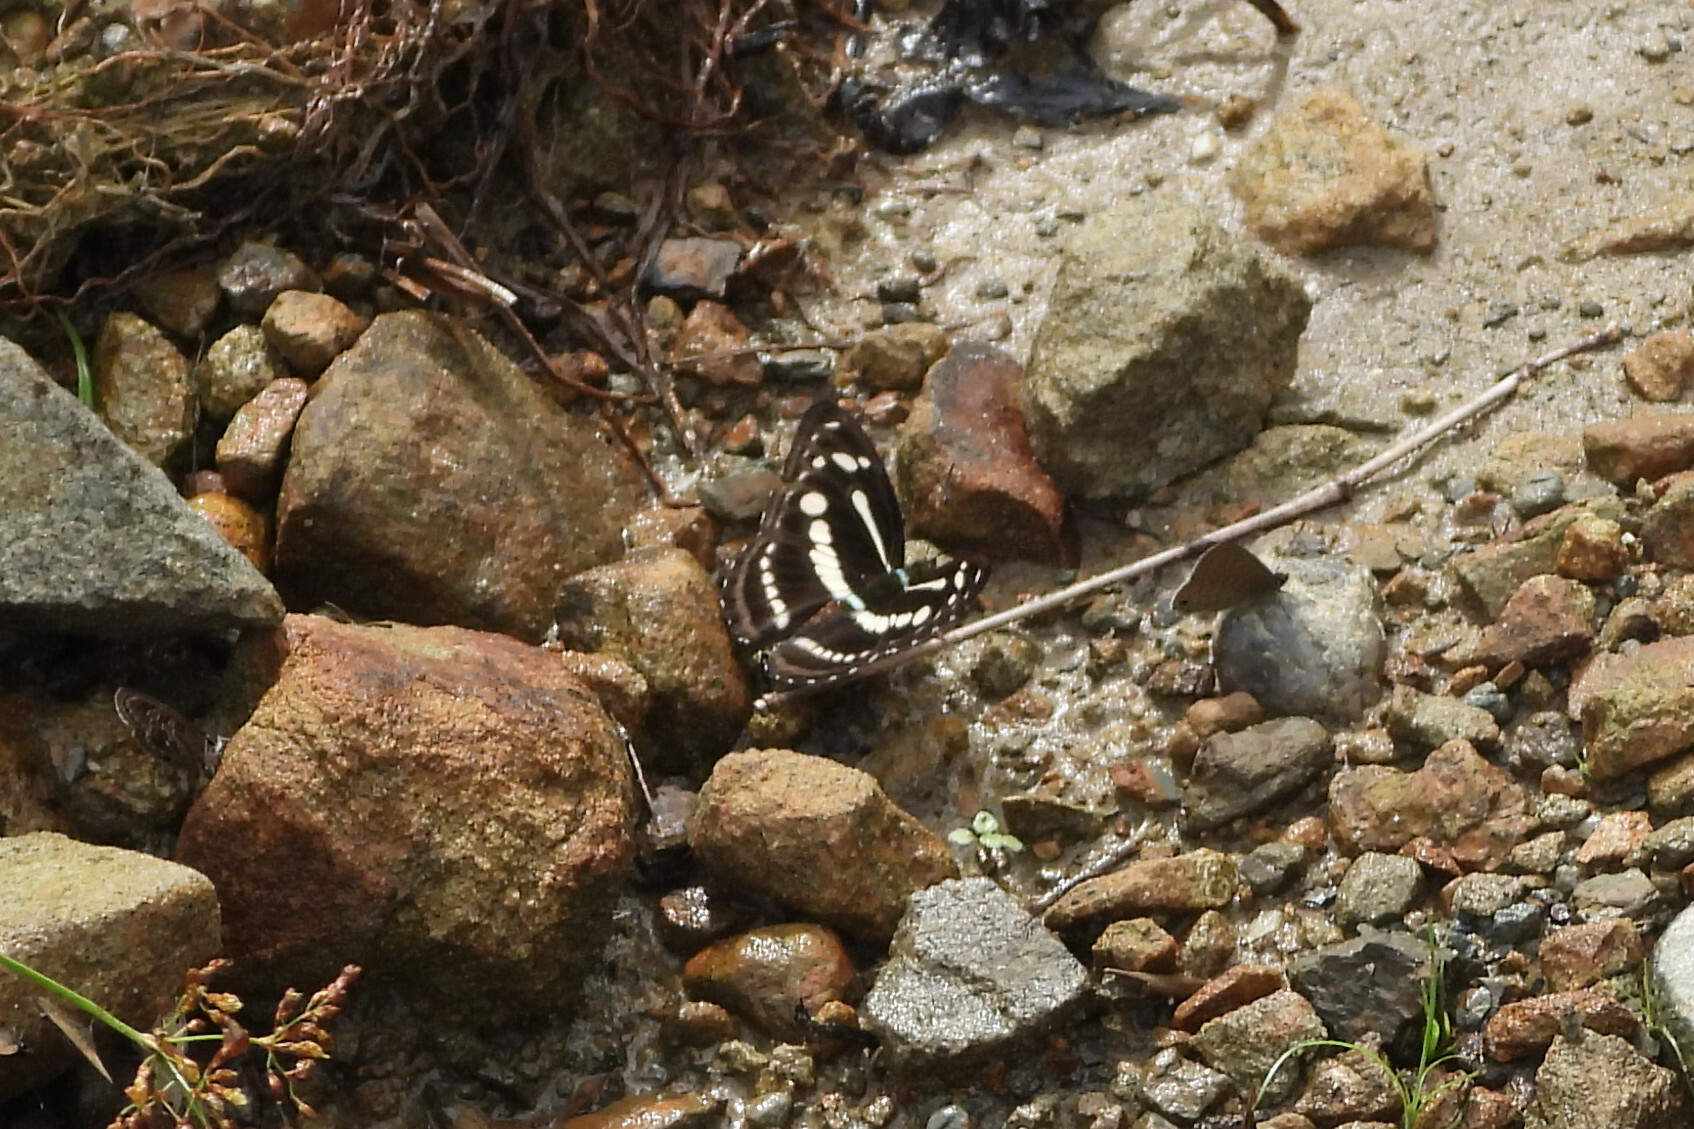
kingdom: Animalia
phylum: Arthropoda
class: Insecta
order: Lepidoptera
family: Nymphalidae
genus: Parathyma
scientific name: Parathyma pravara
